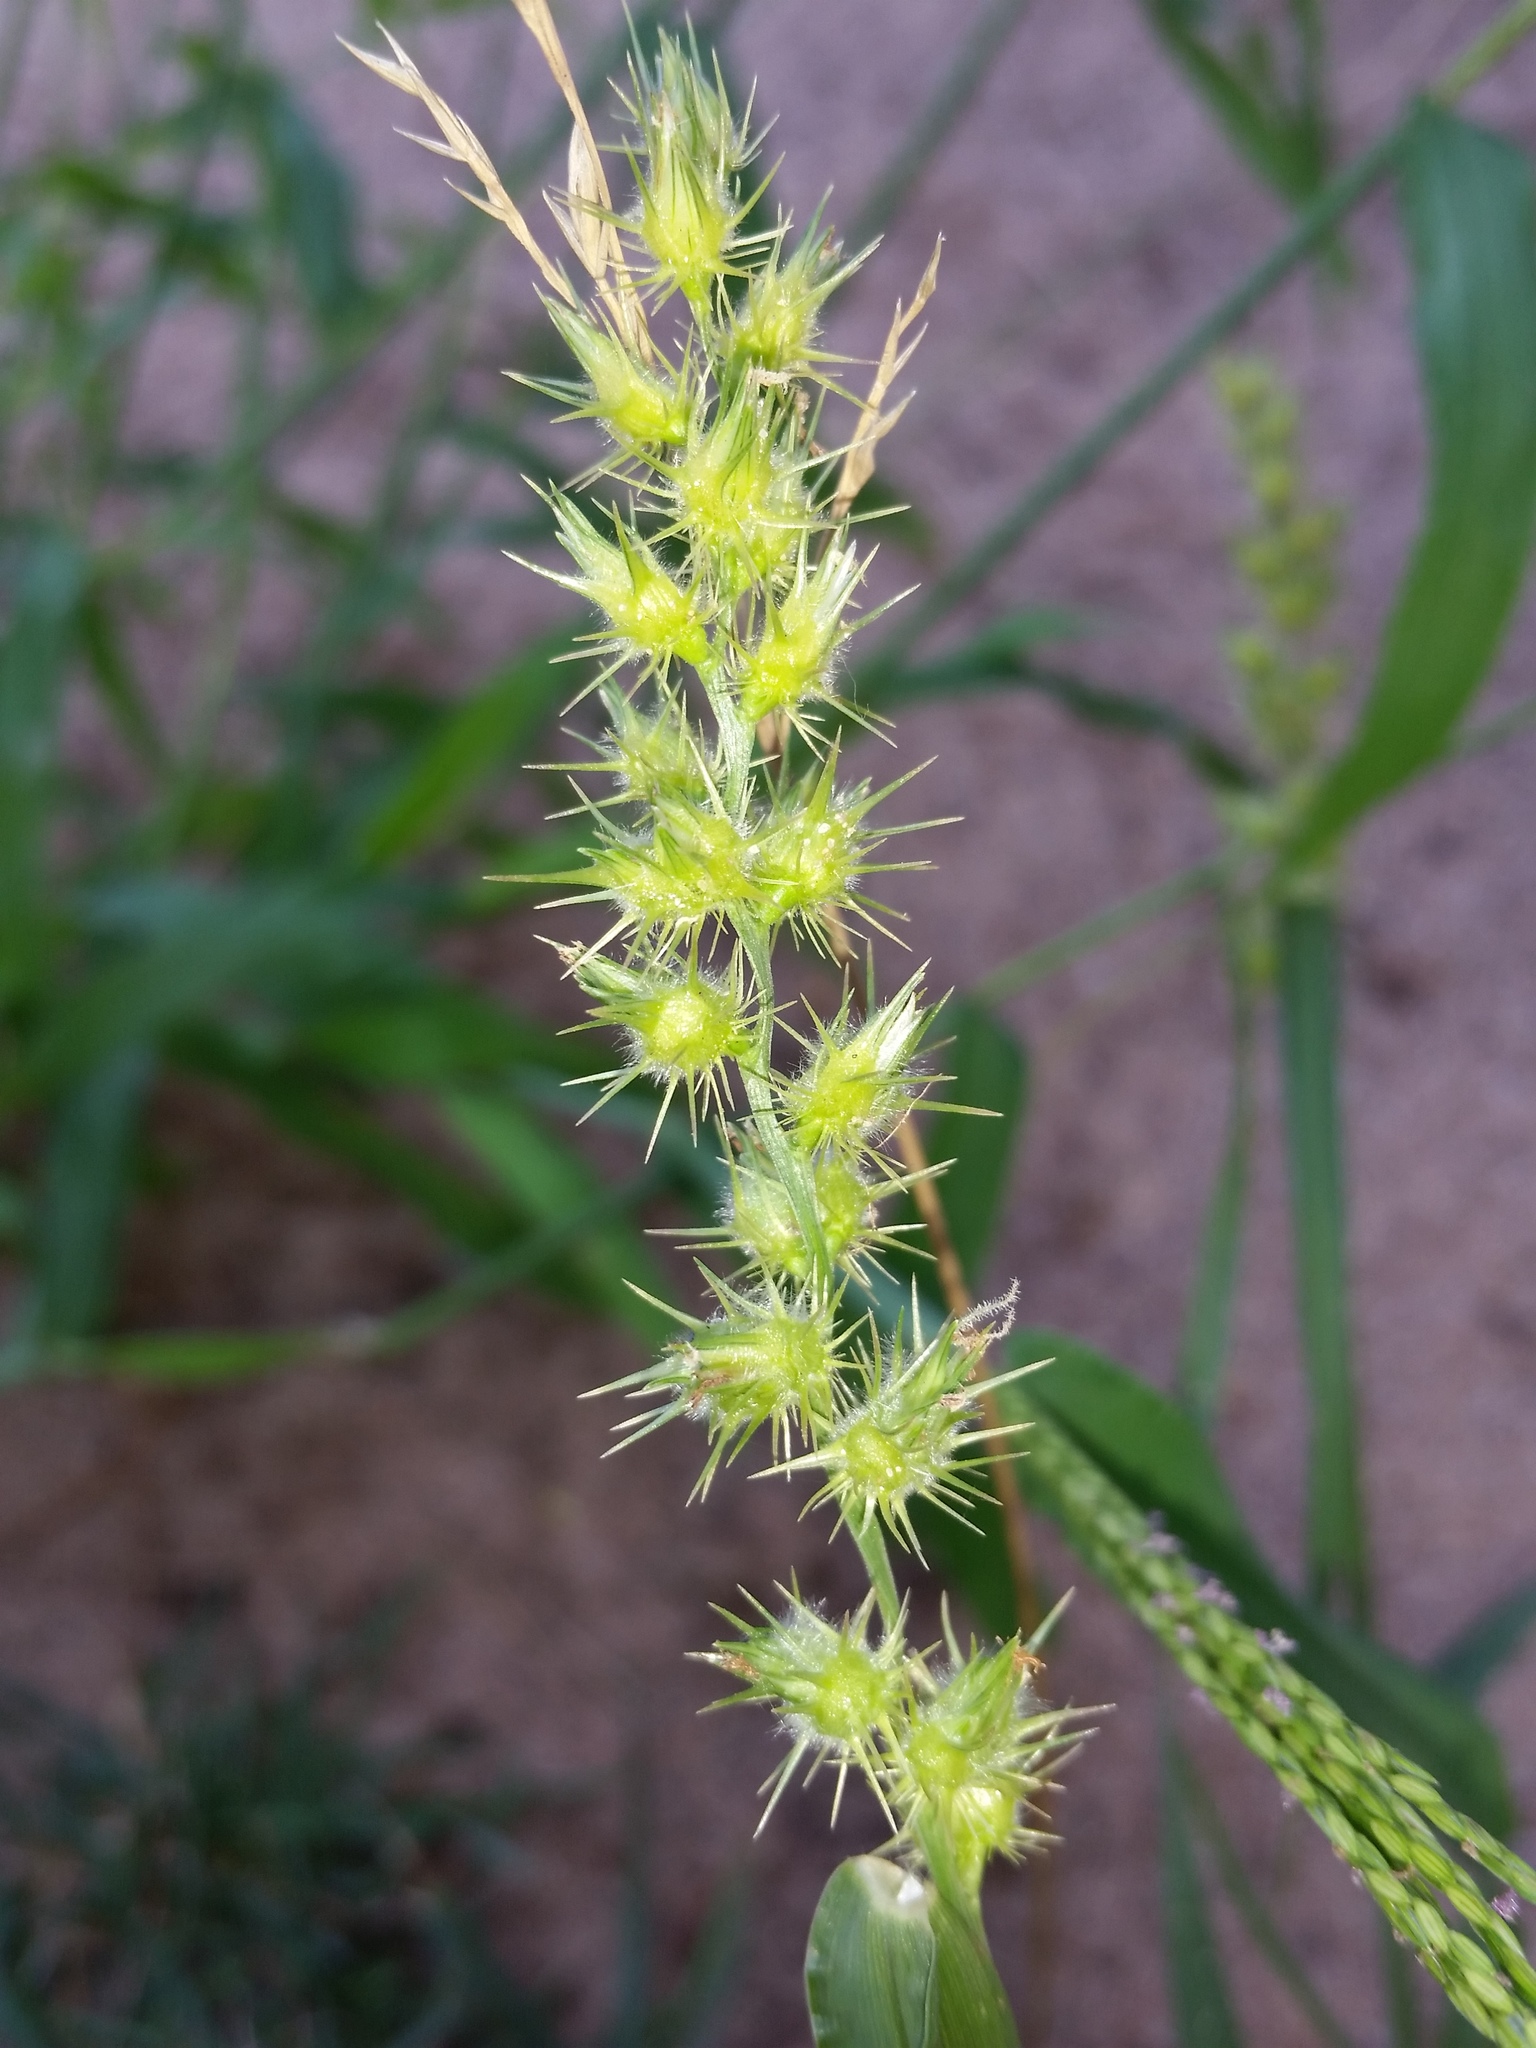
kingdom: Plantae
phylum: Tracheophyta
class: Liliopsida
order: Poales
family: Poaceae
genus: Cenchrus
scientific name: Cenchrus longispinus
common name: Mat sandbur
